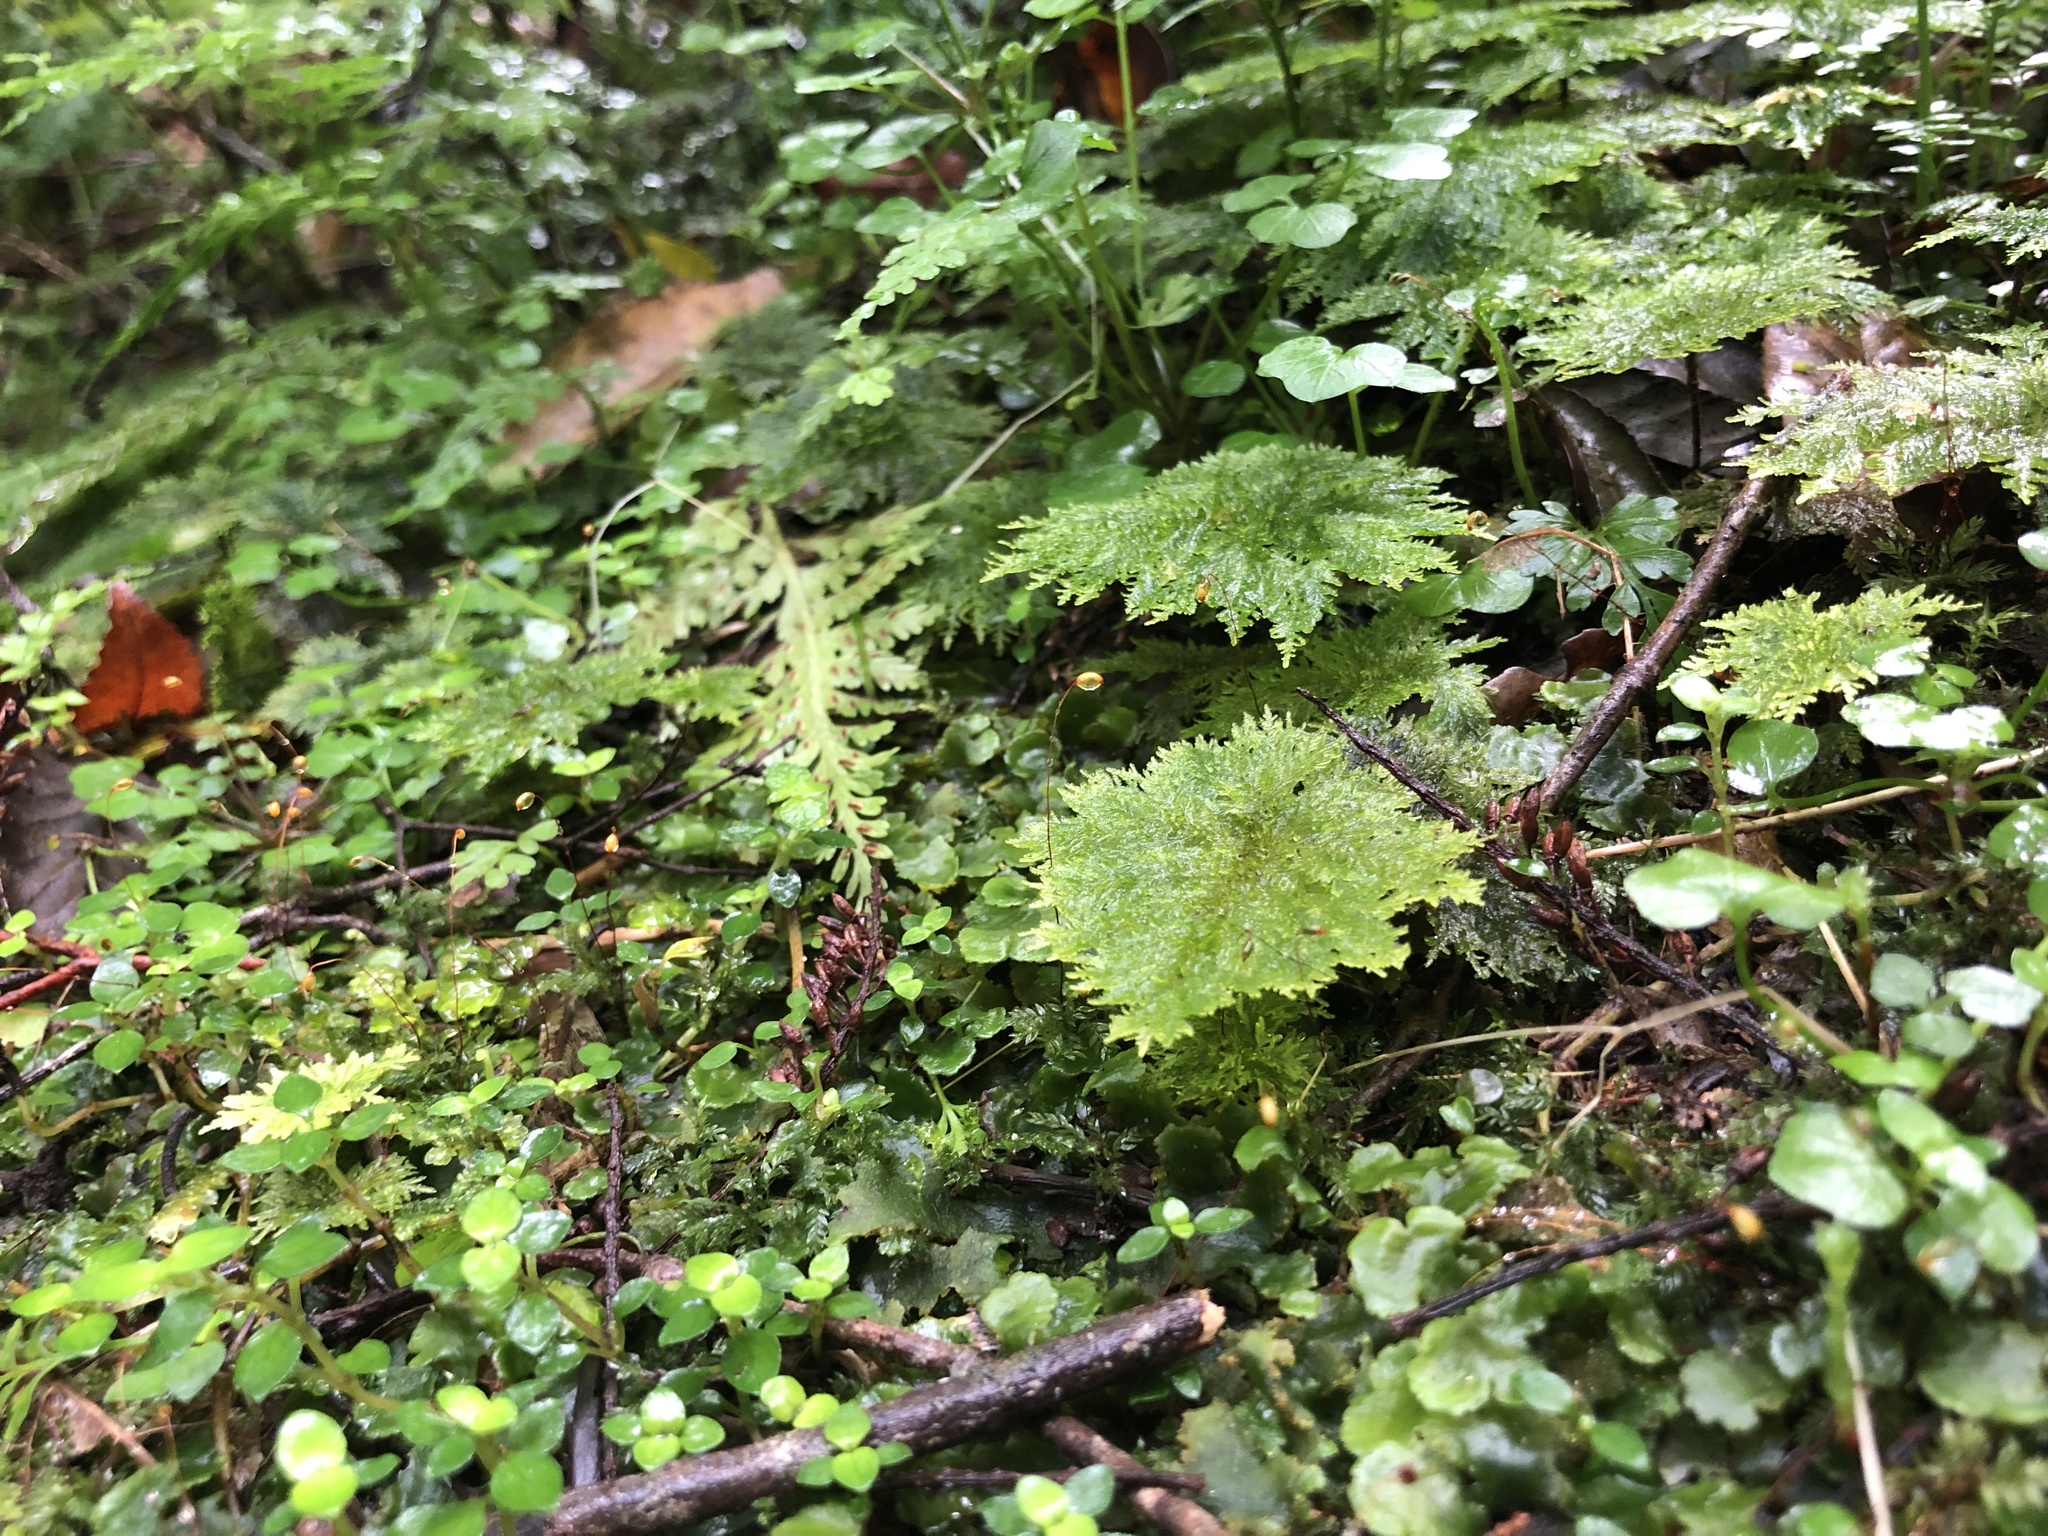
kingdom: Plantae
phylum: Bryophyta
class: Bryopsida
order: Hypopterygiales
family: Hypopterygiaceae
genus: Dendrohypopterygium
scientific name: Dendrohypopterygium filiculiforme
